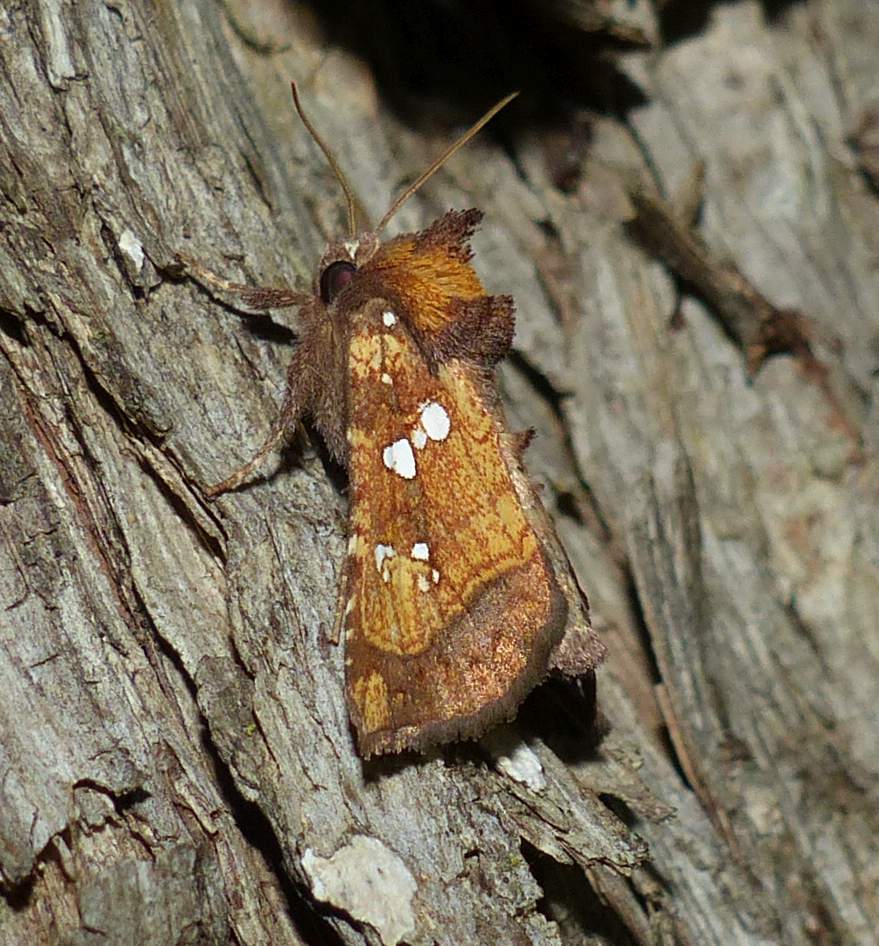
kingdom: Animalia
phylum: Arthropoda
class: Insecta
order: Lepidoptera
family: Noctuidae
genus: Papaipema
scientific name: Papaipema arctivorens
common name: Northern burdock borer moth
